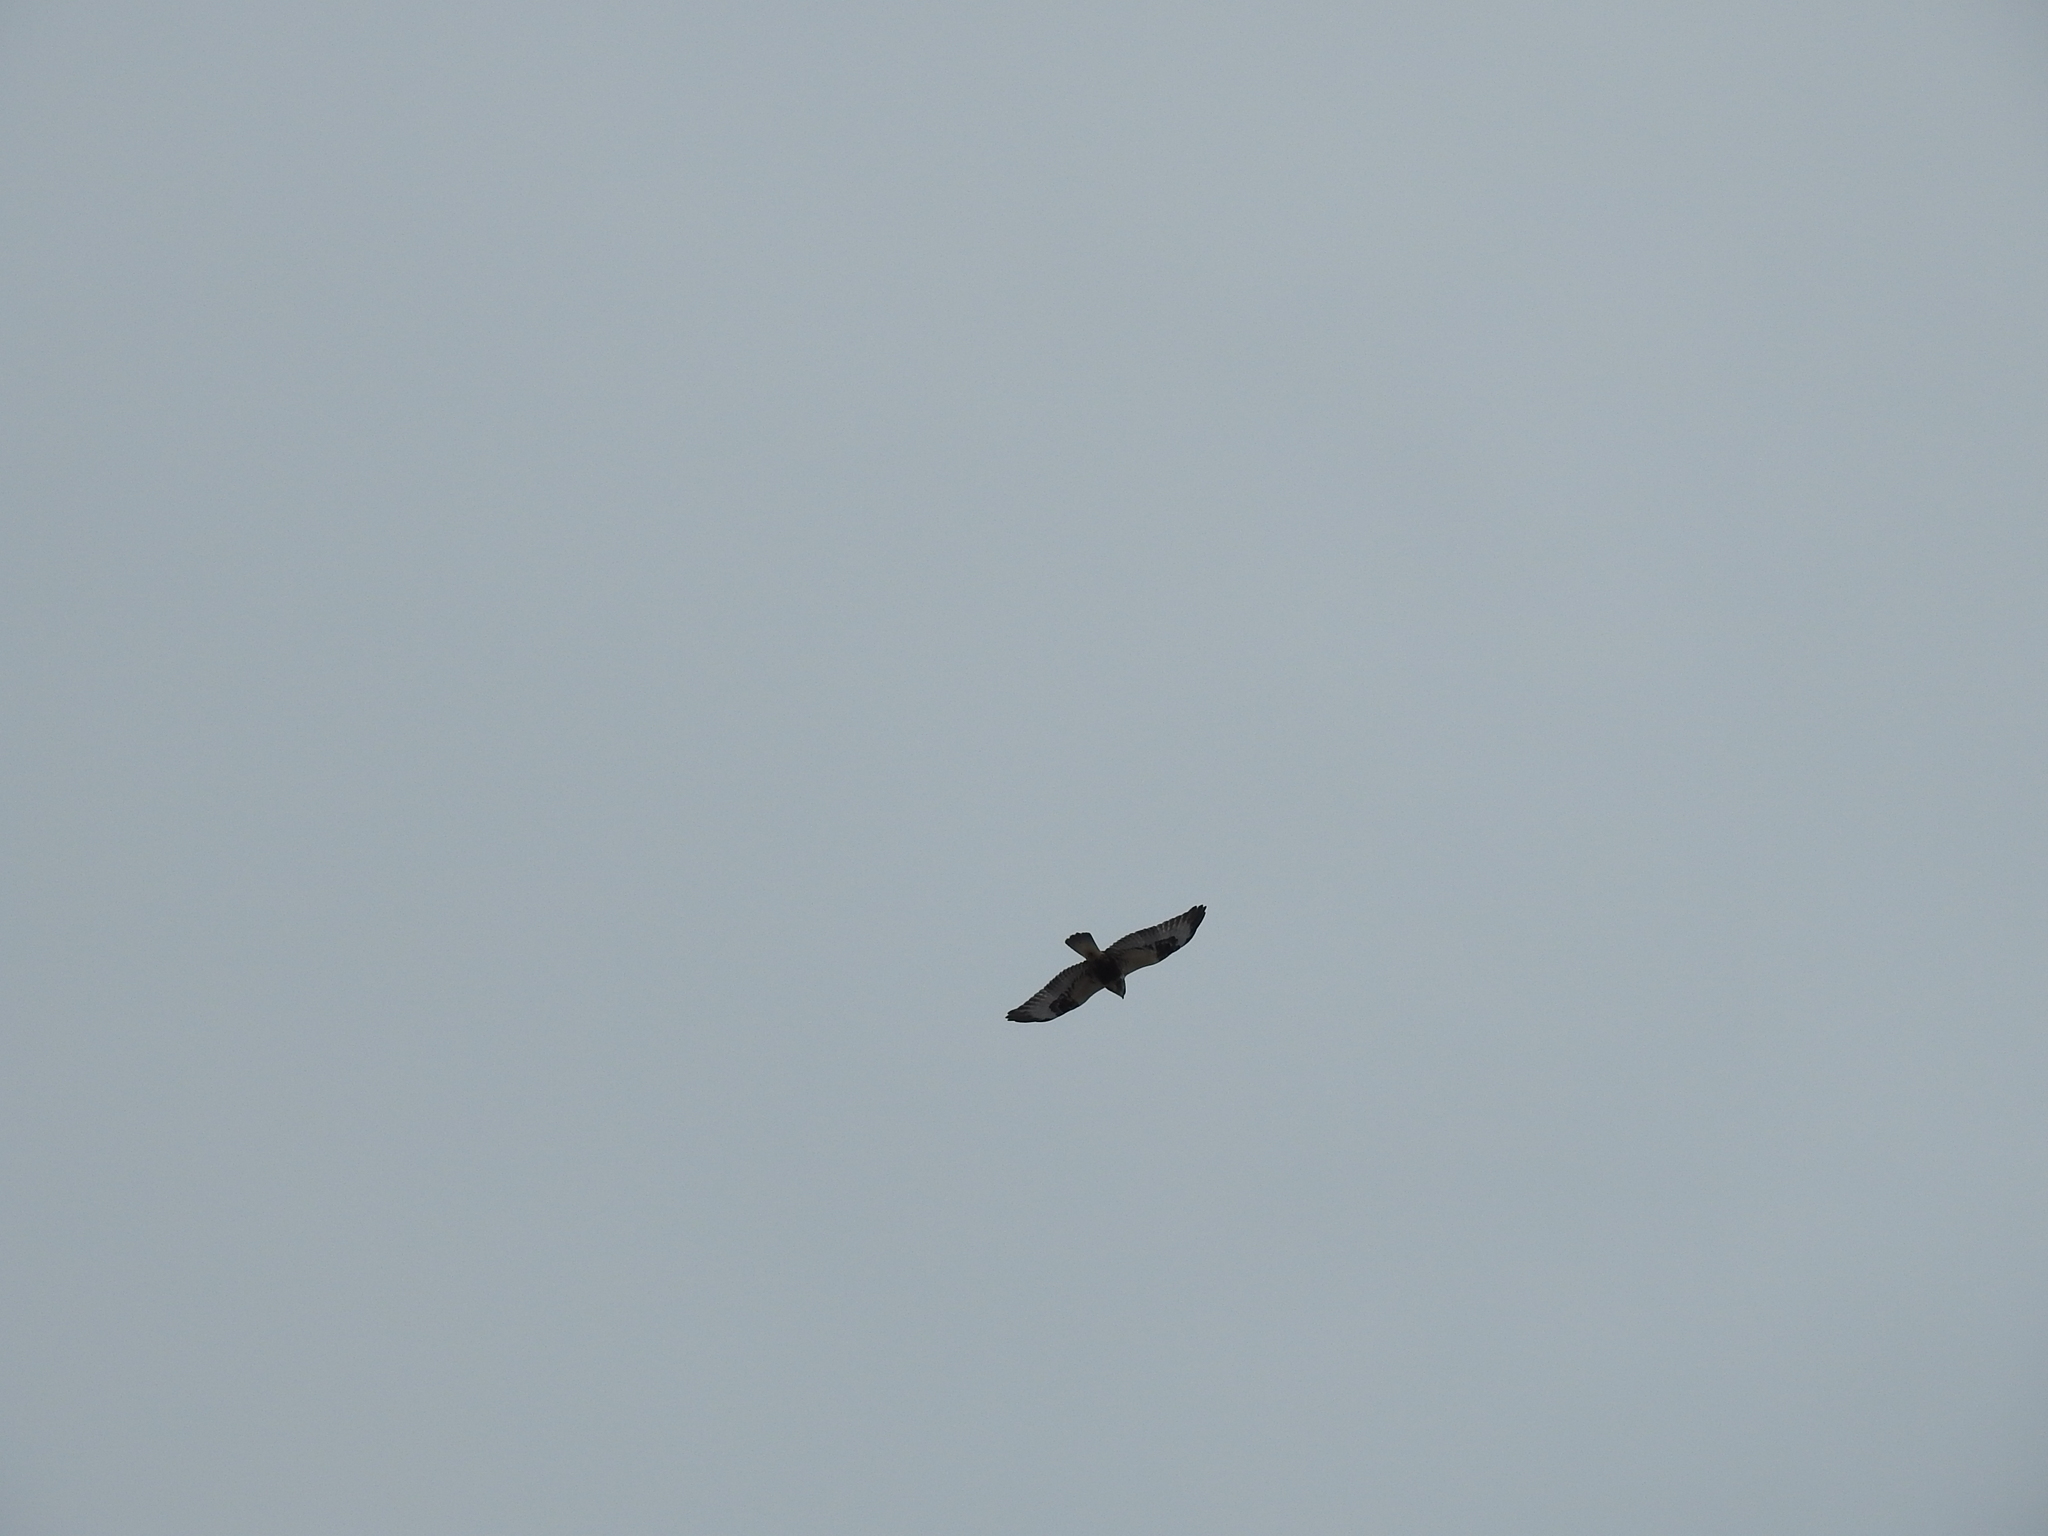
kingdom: Animalia
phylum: Chordata
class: Aves
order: Accipitriformes
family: Accipitridae
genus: Buteo
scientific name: Buteo lagopus
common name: Rough-legged buzzard
